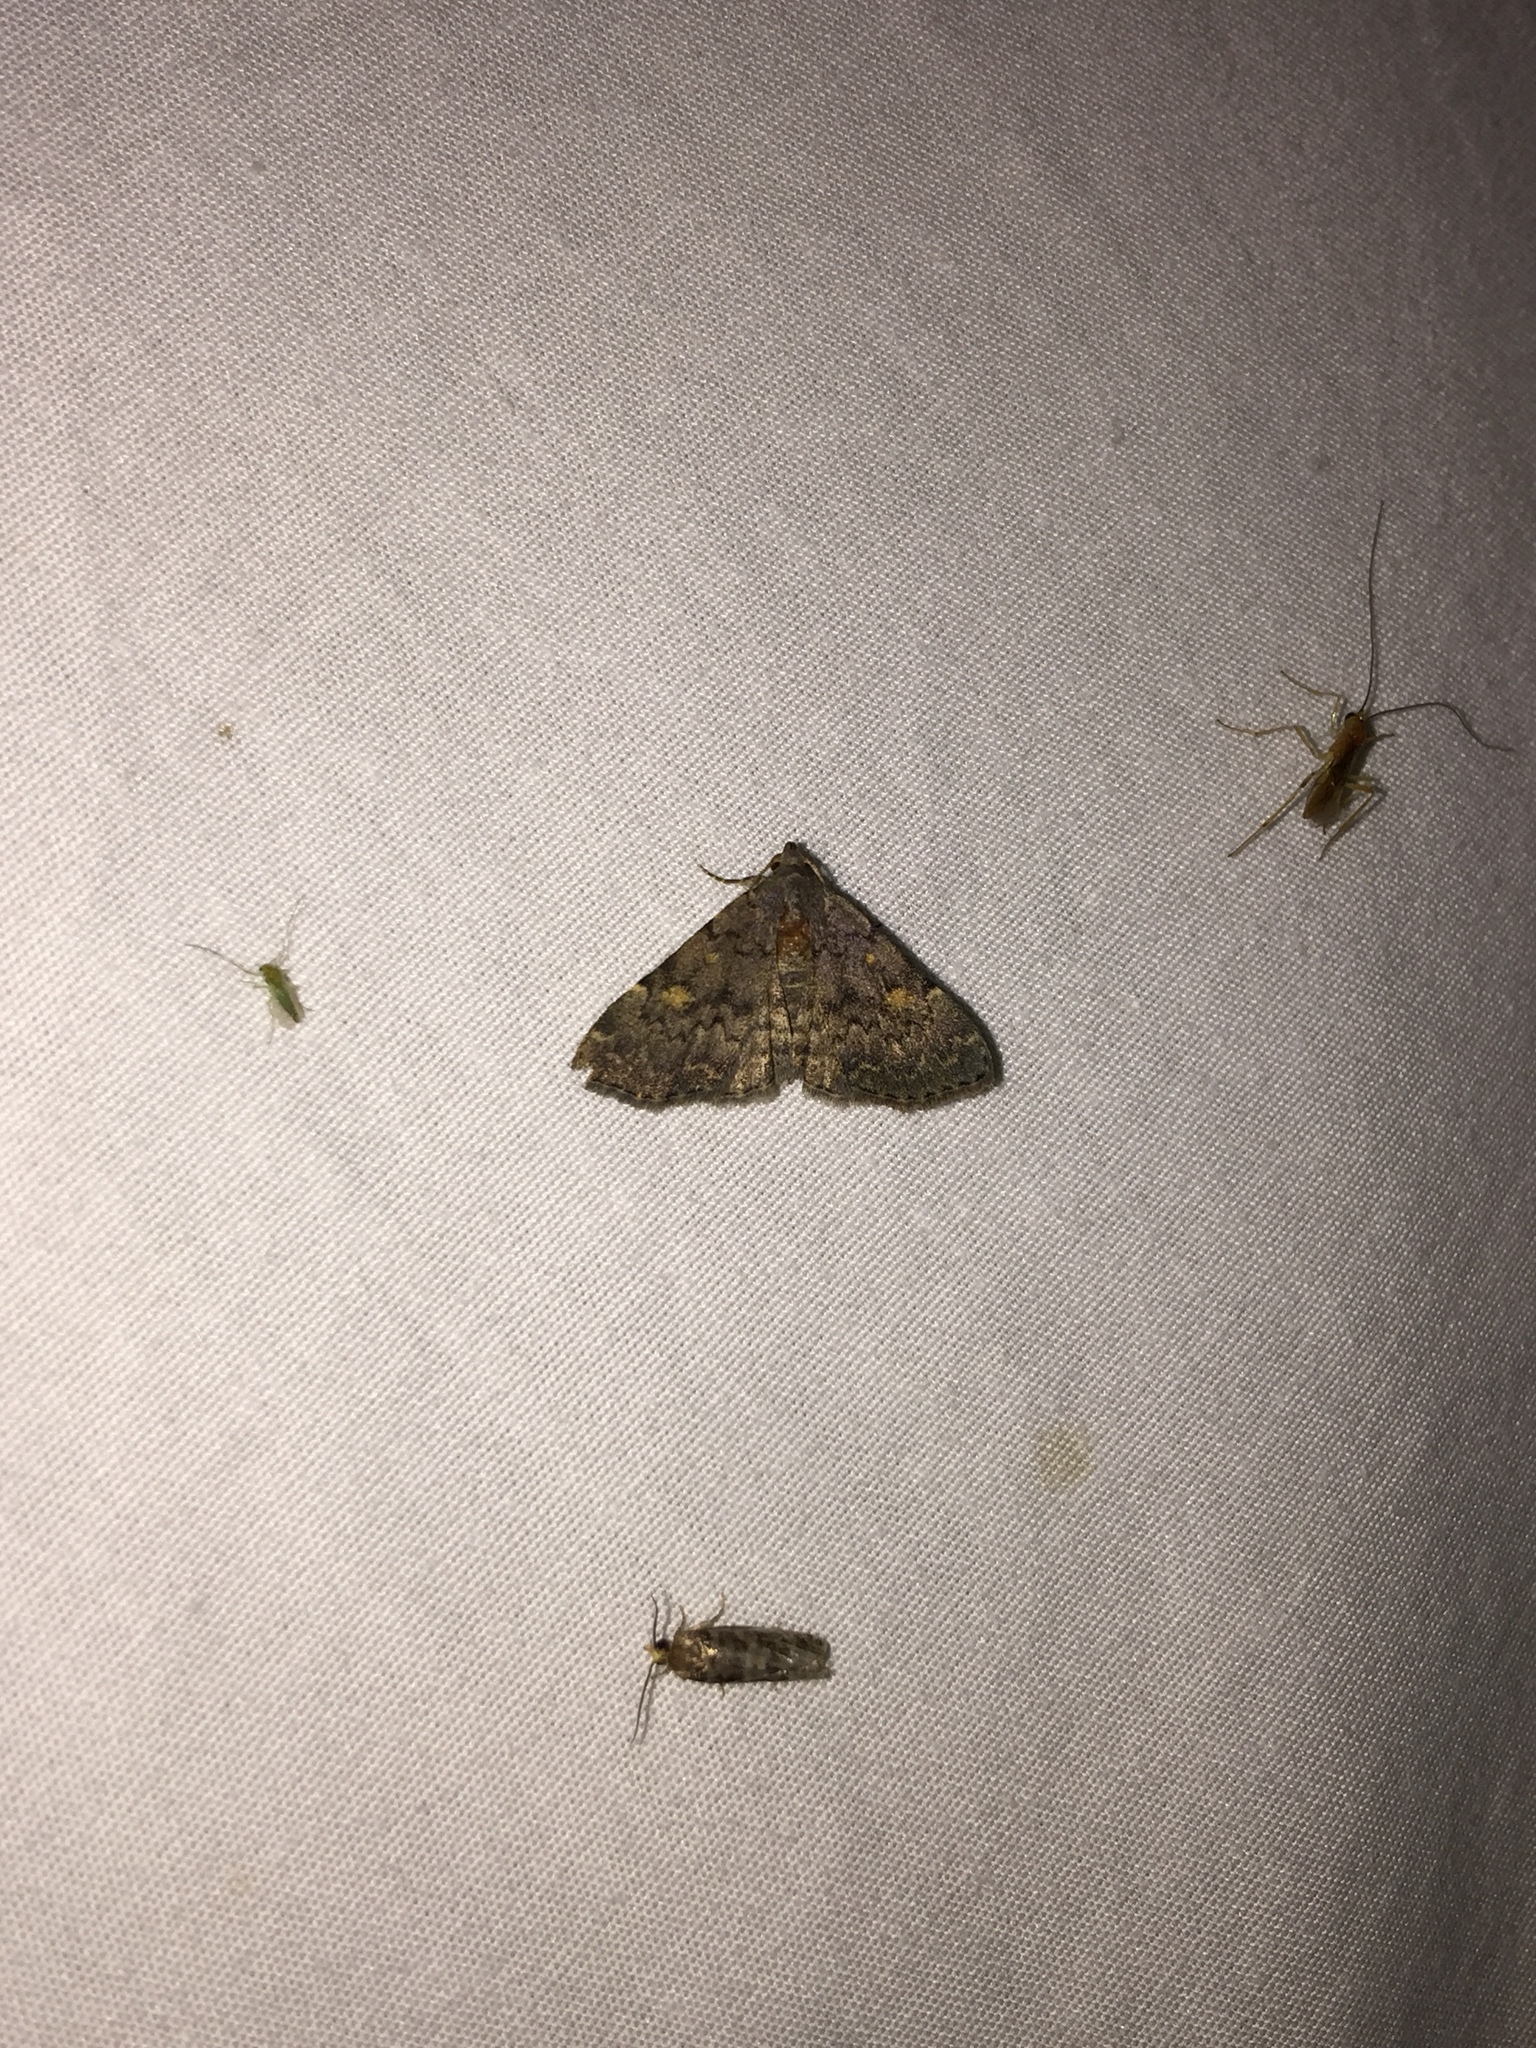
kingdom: Animalia
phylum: Arthropoda
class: Insecta
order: Lepidoptera
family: Erebidae
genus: Idia
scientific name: Idia aemula
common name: Common idia moth
